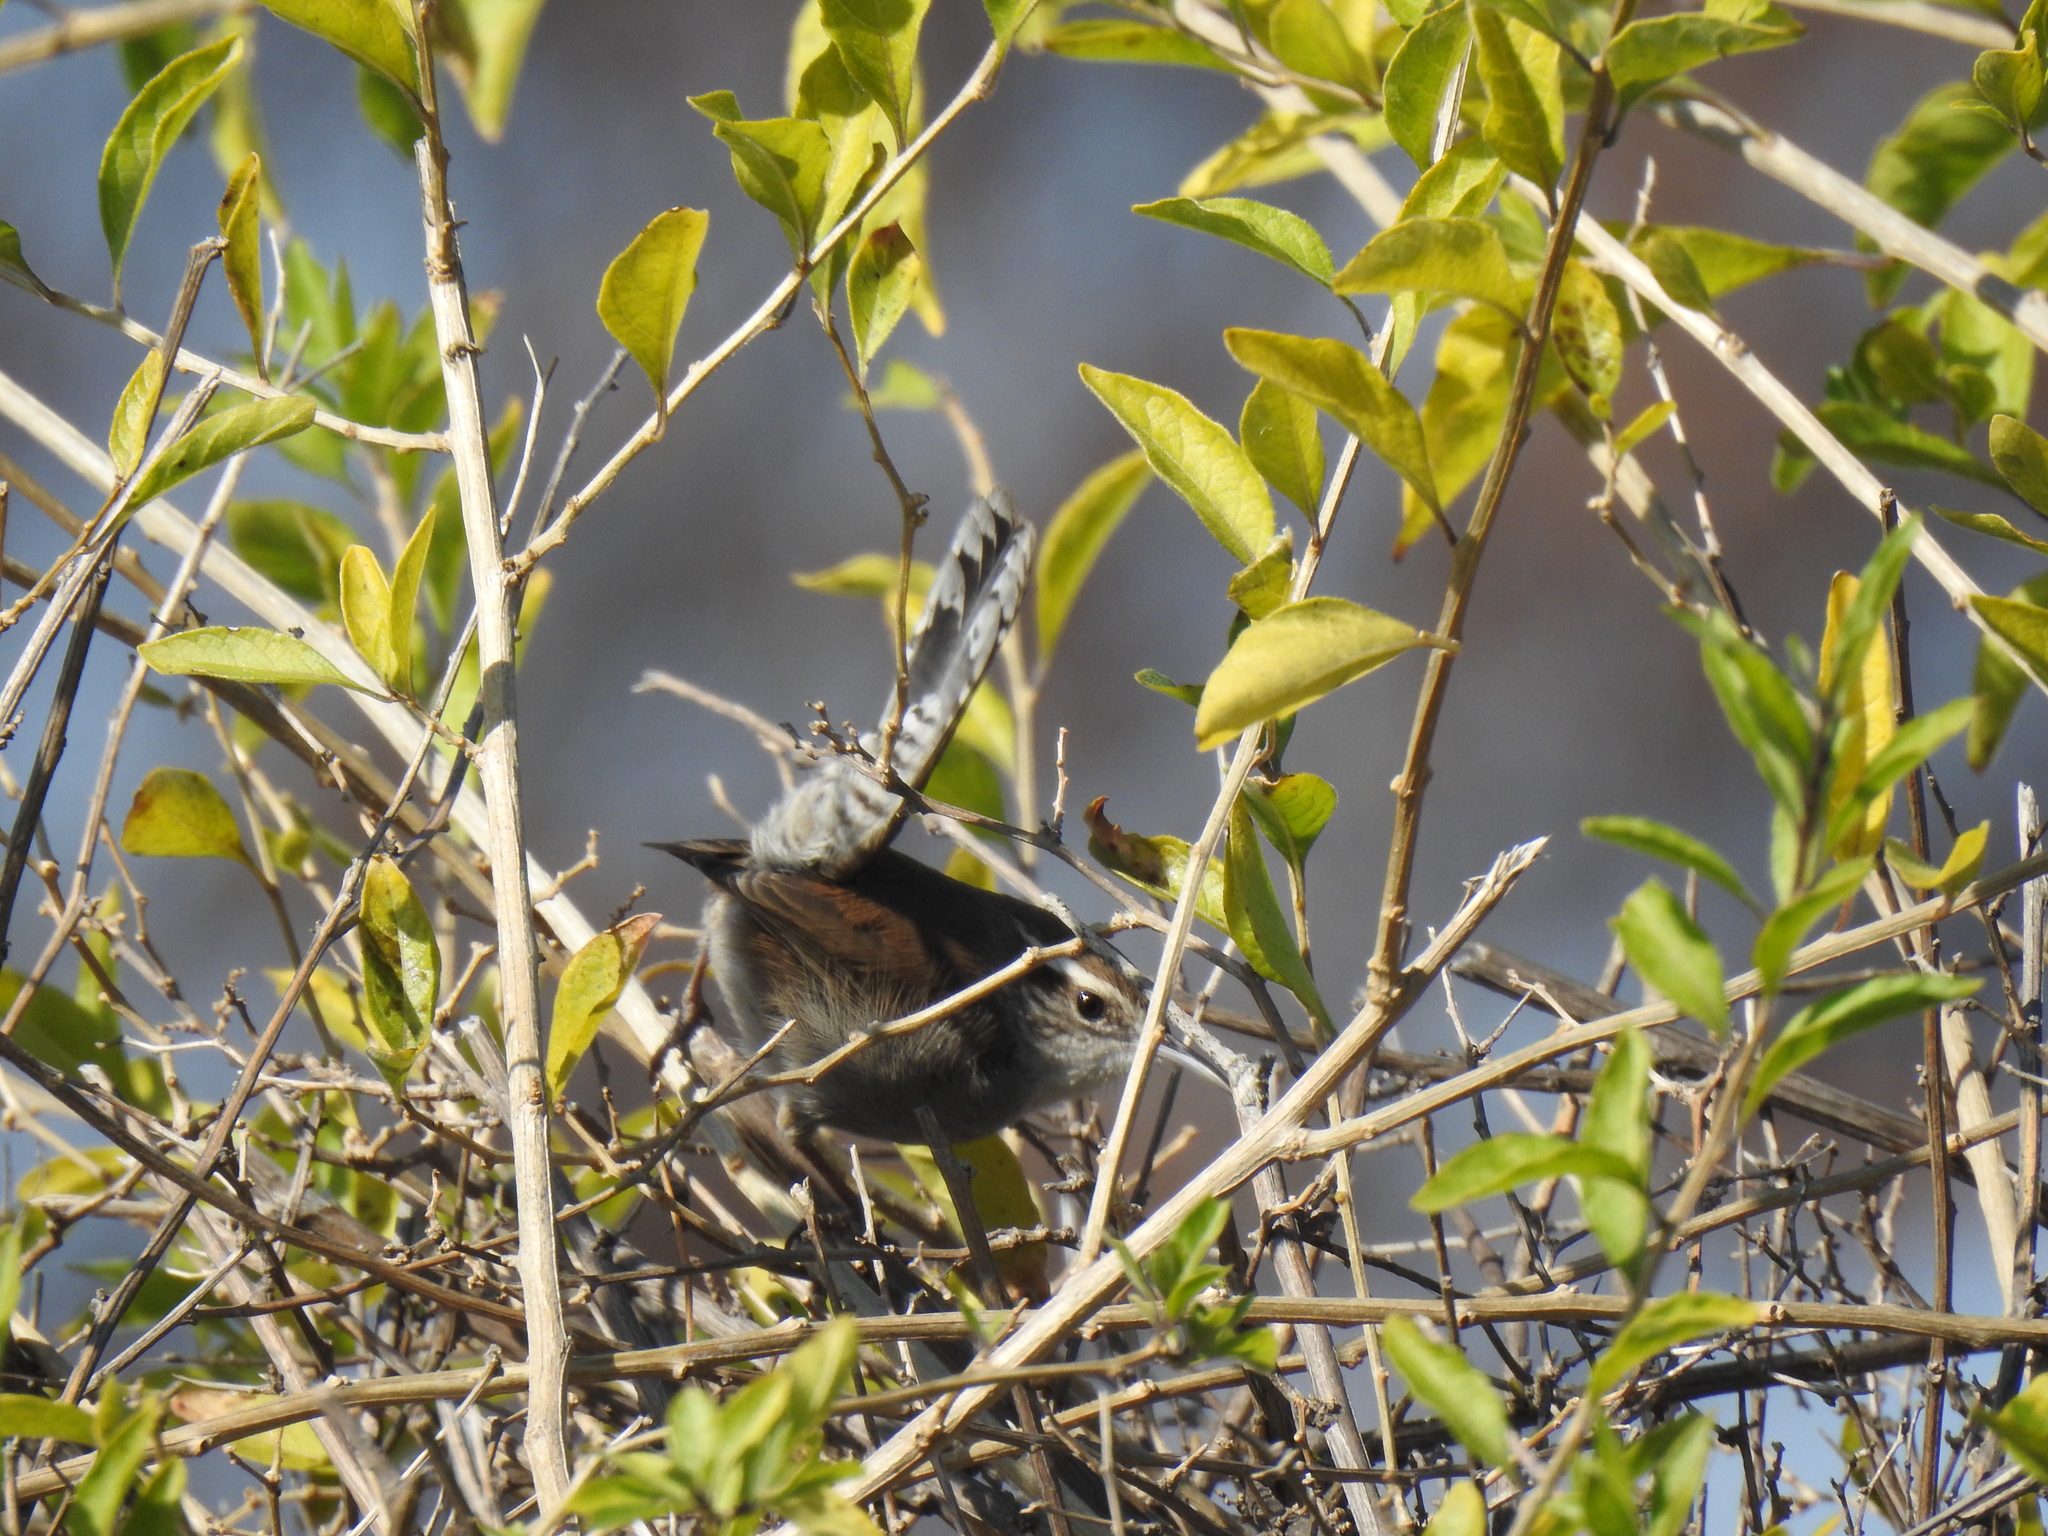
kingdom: Animalia
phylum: Chordata
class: Aves
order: Passeriformes
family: Troglodytidae
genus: Thryomanes
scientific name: Thryomanes bewickii
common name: Bewick's wren
